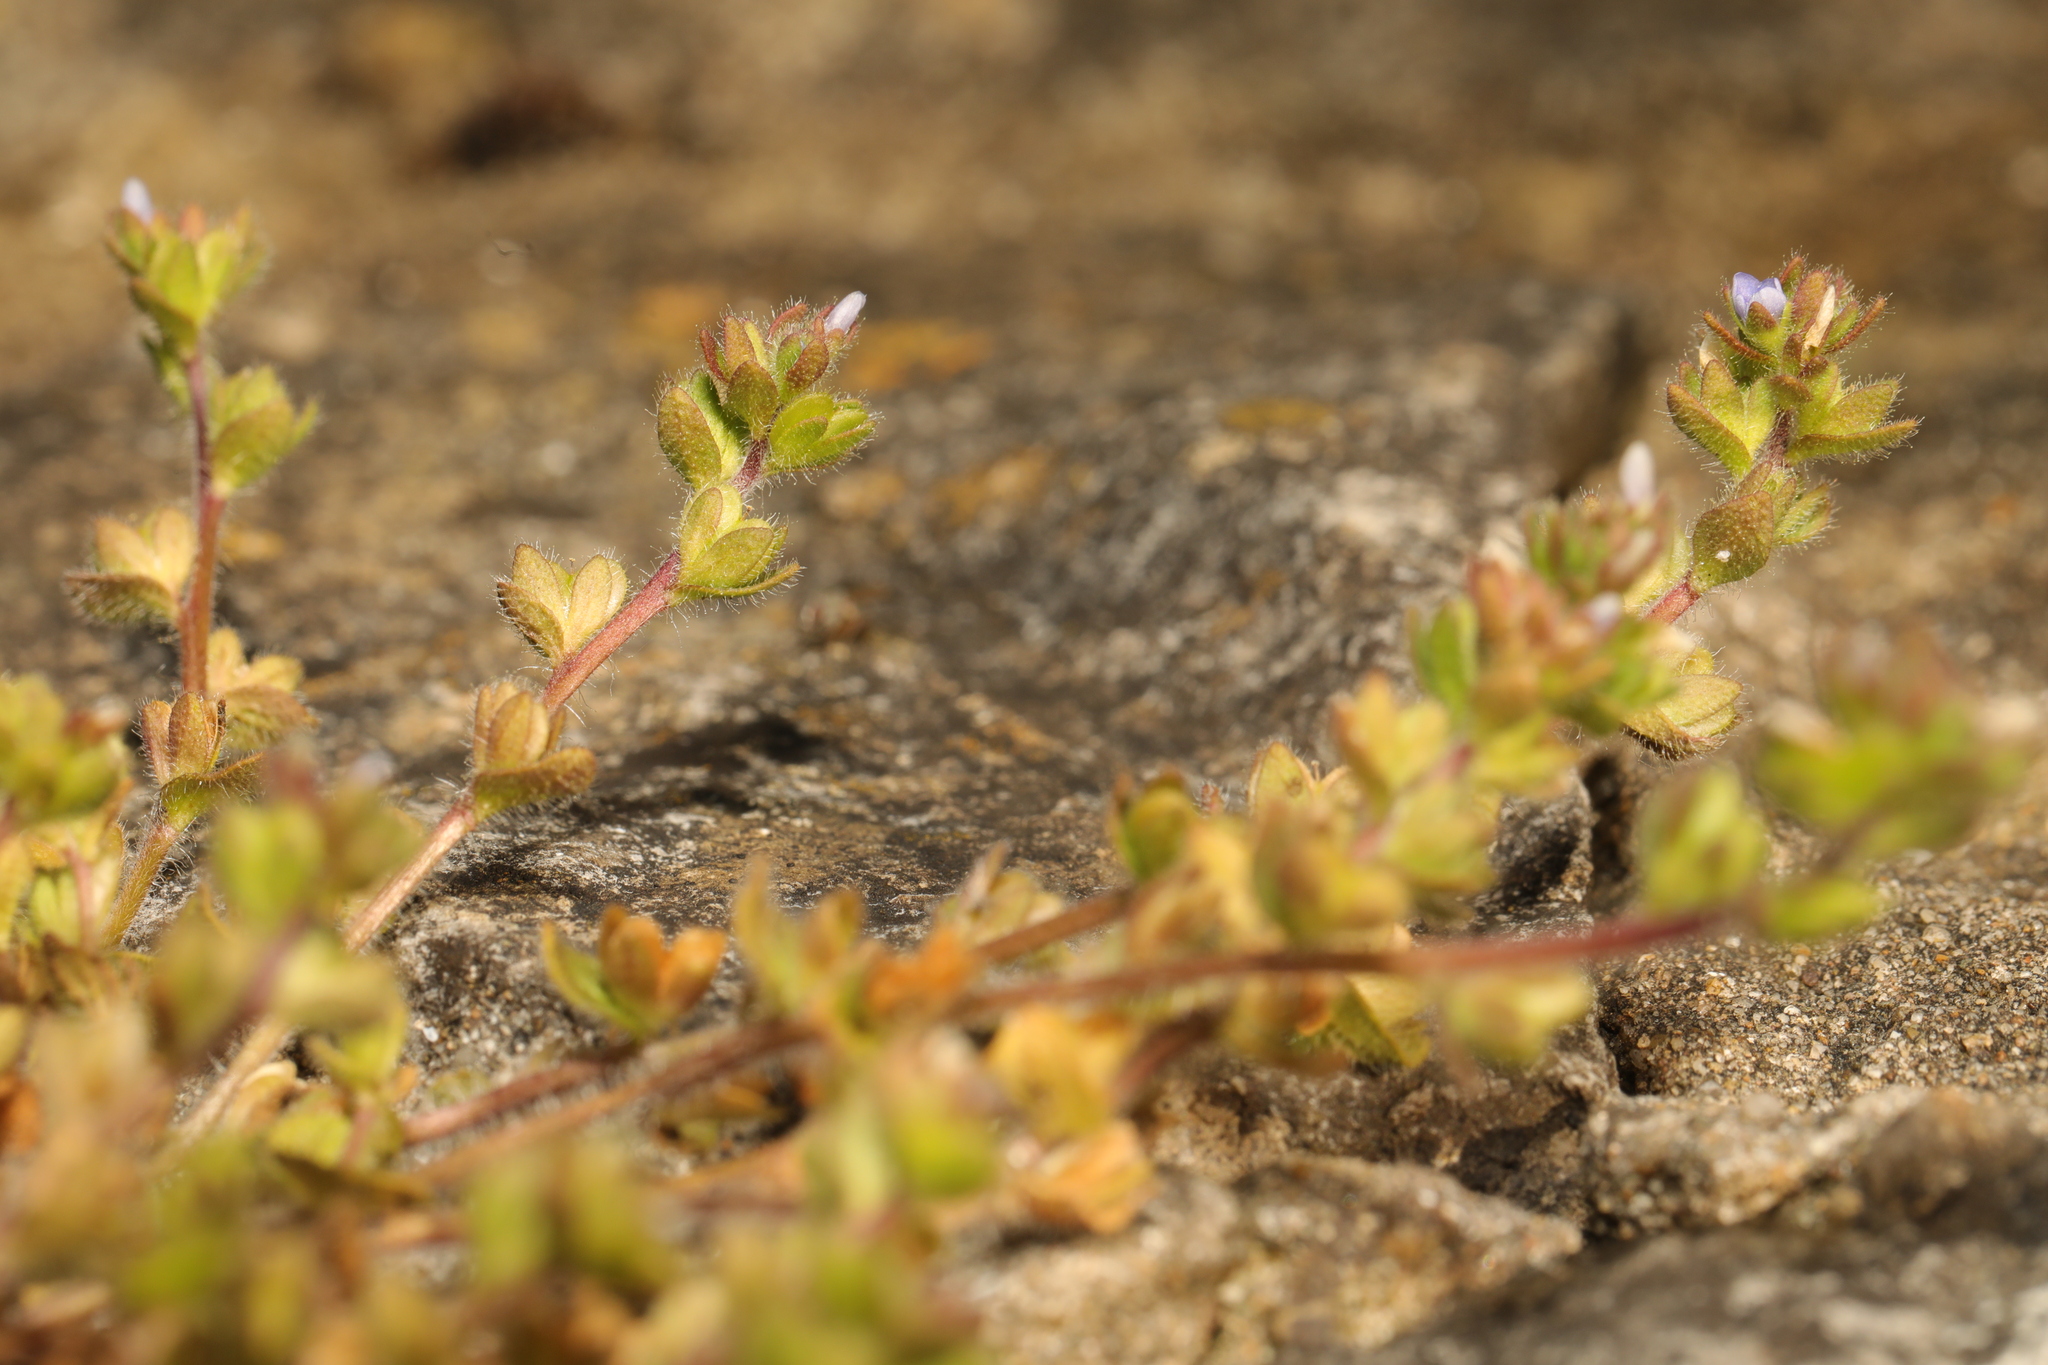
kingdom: Plantae
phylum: Tracheophyta
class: Magnoliopsida
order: Lamiales
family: Plantaginaceae
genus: Veronica
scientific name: Veronica arvensis
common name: Corn speedwell
